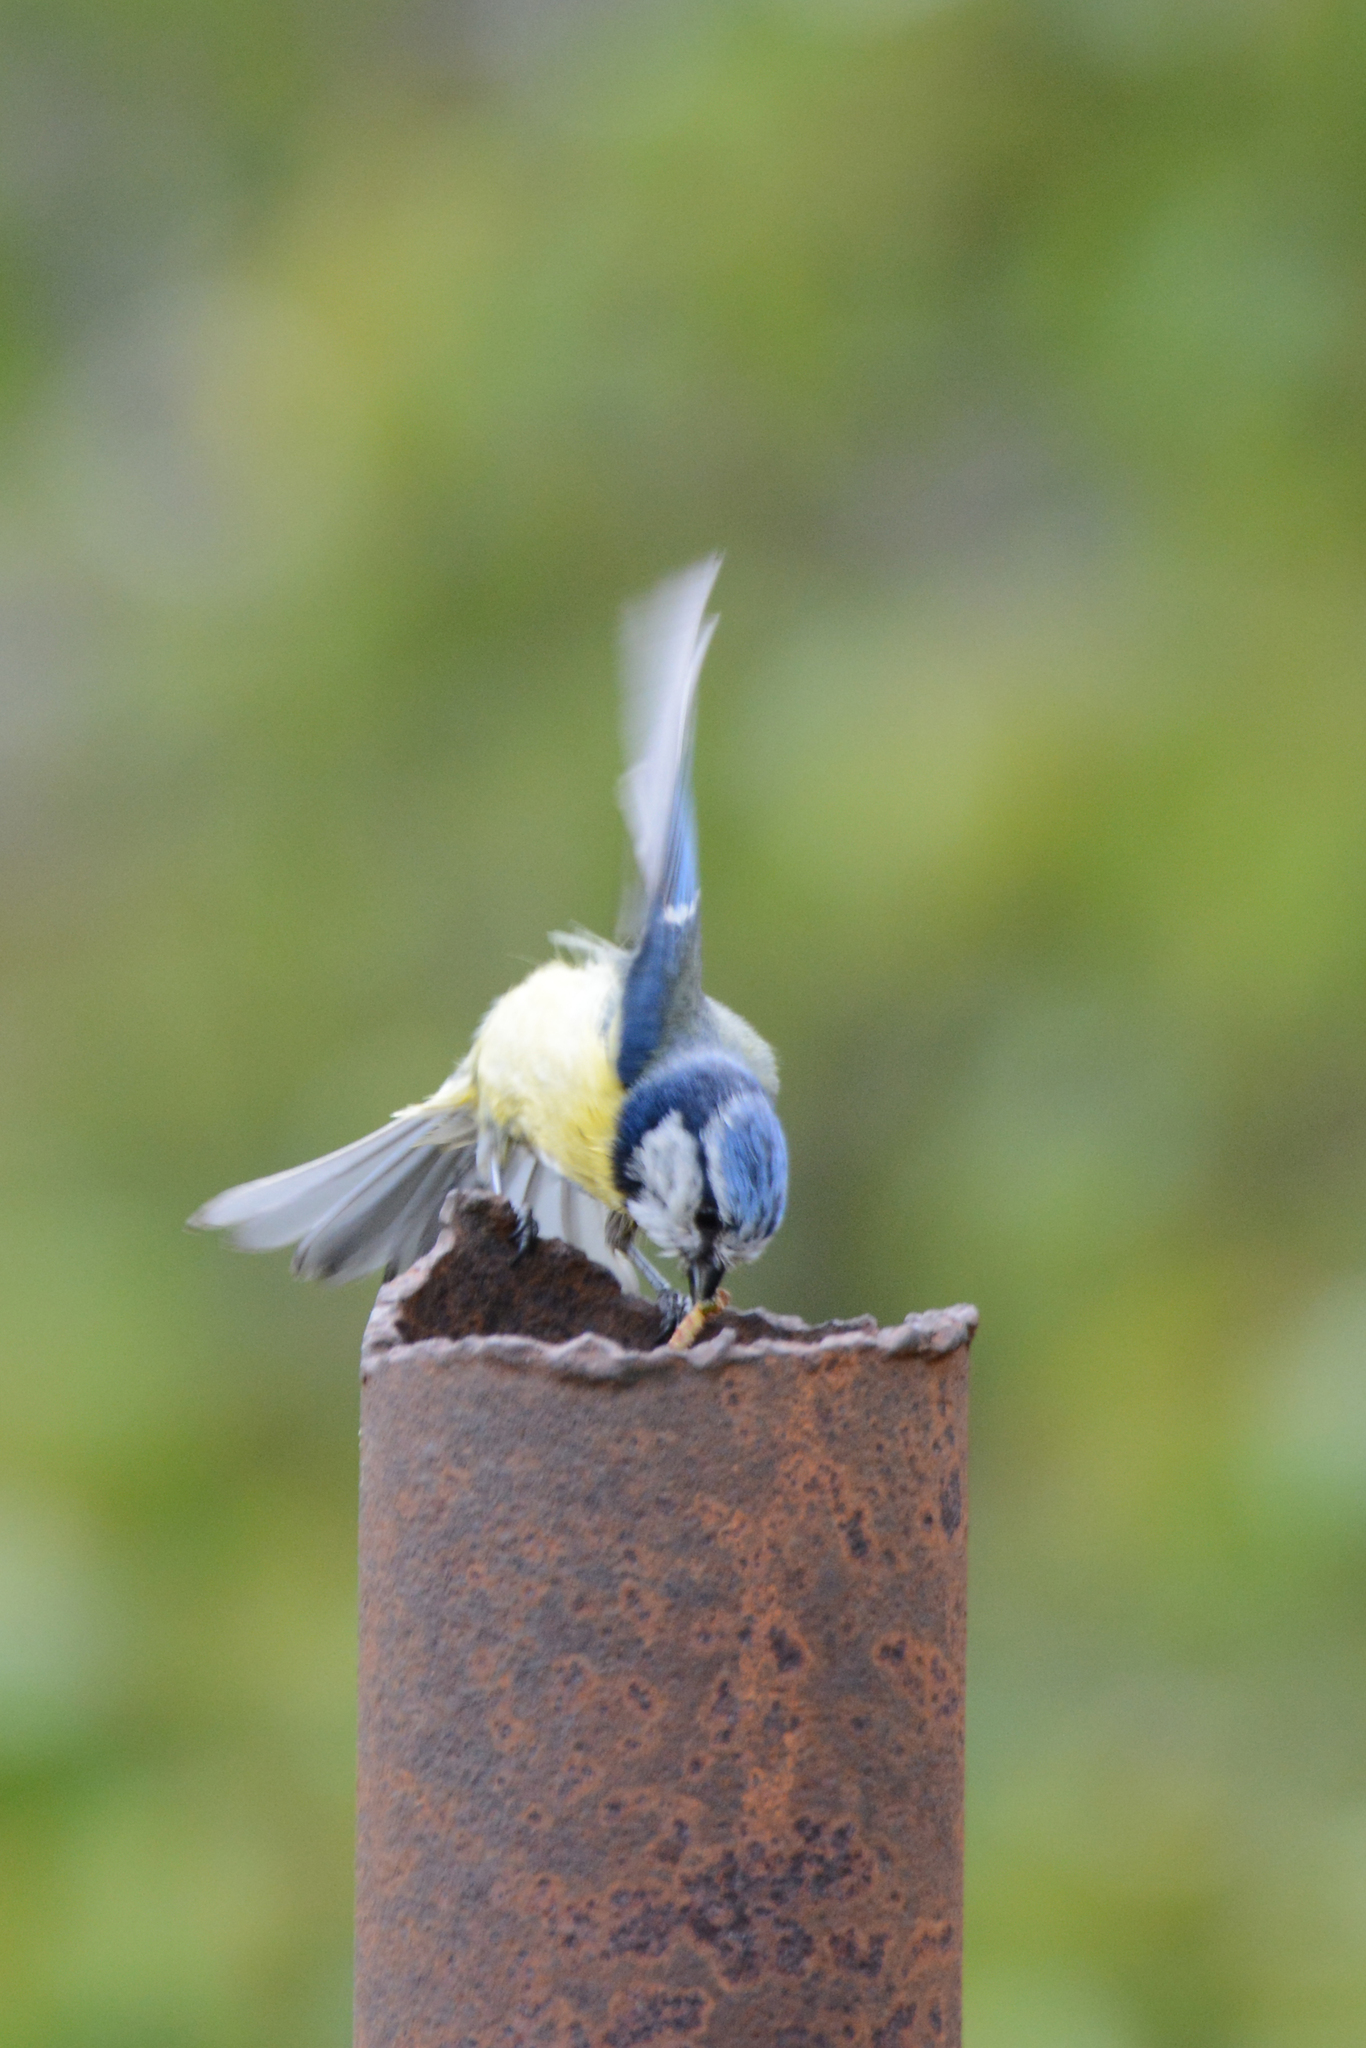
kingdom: Animalia
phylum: Chordata
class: Aves
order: Passeriformes
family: Paridae
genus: Cyanistes
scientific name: Cyanistes caeruleus
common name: Eurasian blue tit
